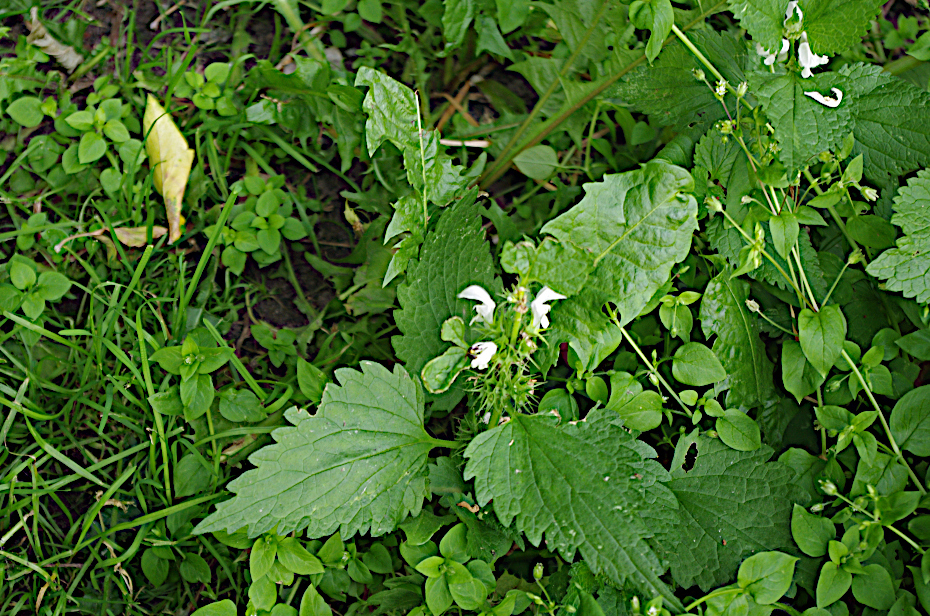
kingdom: Plantae
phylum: Tracheophyta
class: Magnoliopsida
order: Lamiales
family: Lamiaceae
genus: Lamium
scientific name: Lamium album
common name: White dead-nettle
